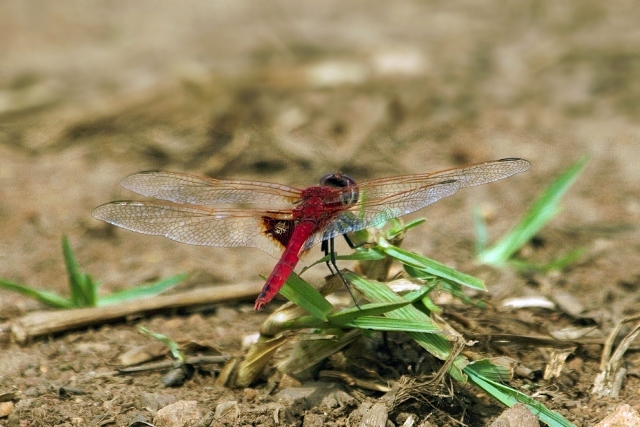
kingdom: Animalia
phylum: Arthropoda
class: Insecta
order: Odonata
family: Libellulidae
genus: Urothemis
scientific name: Urothemis assignata
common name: Red basker
